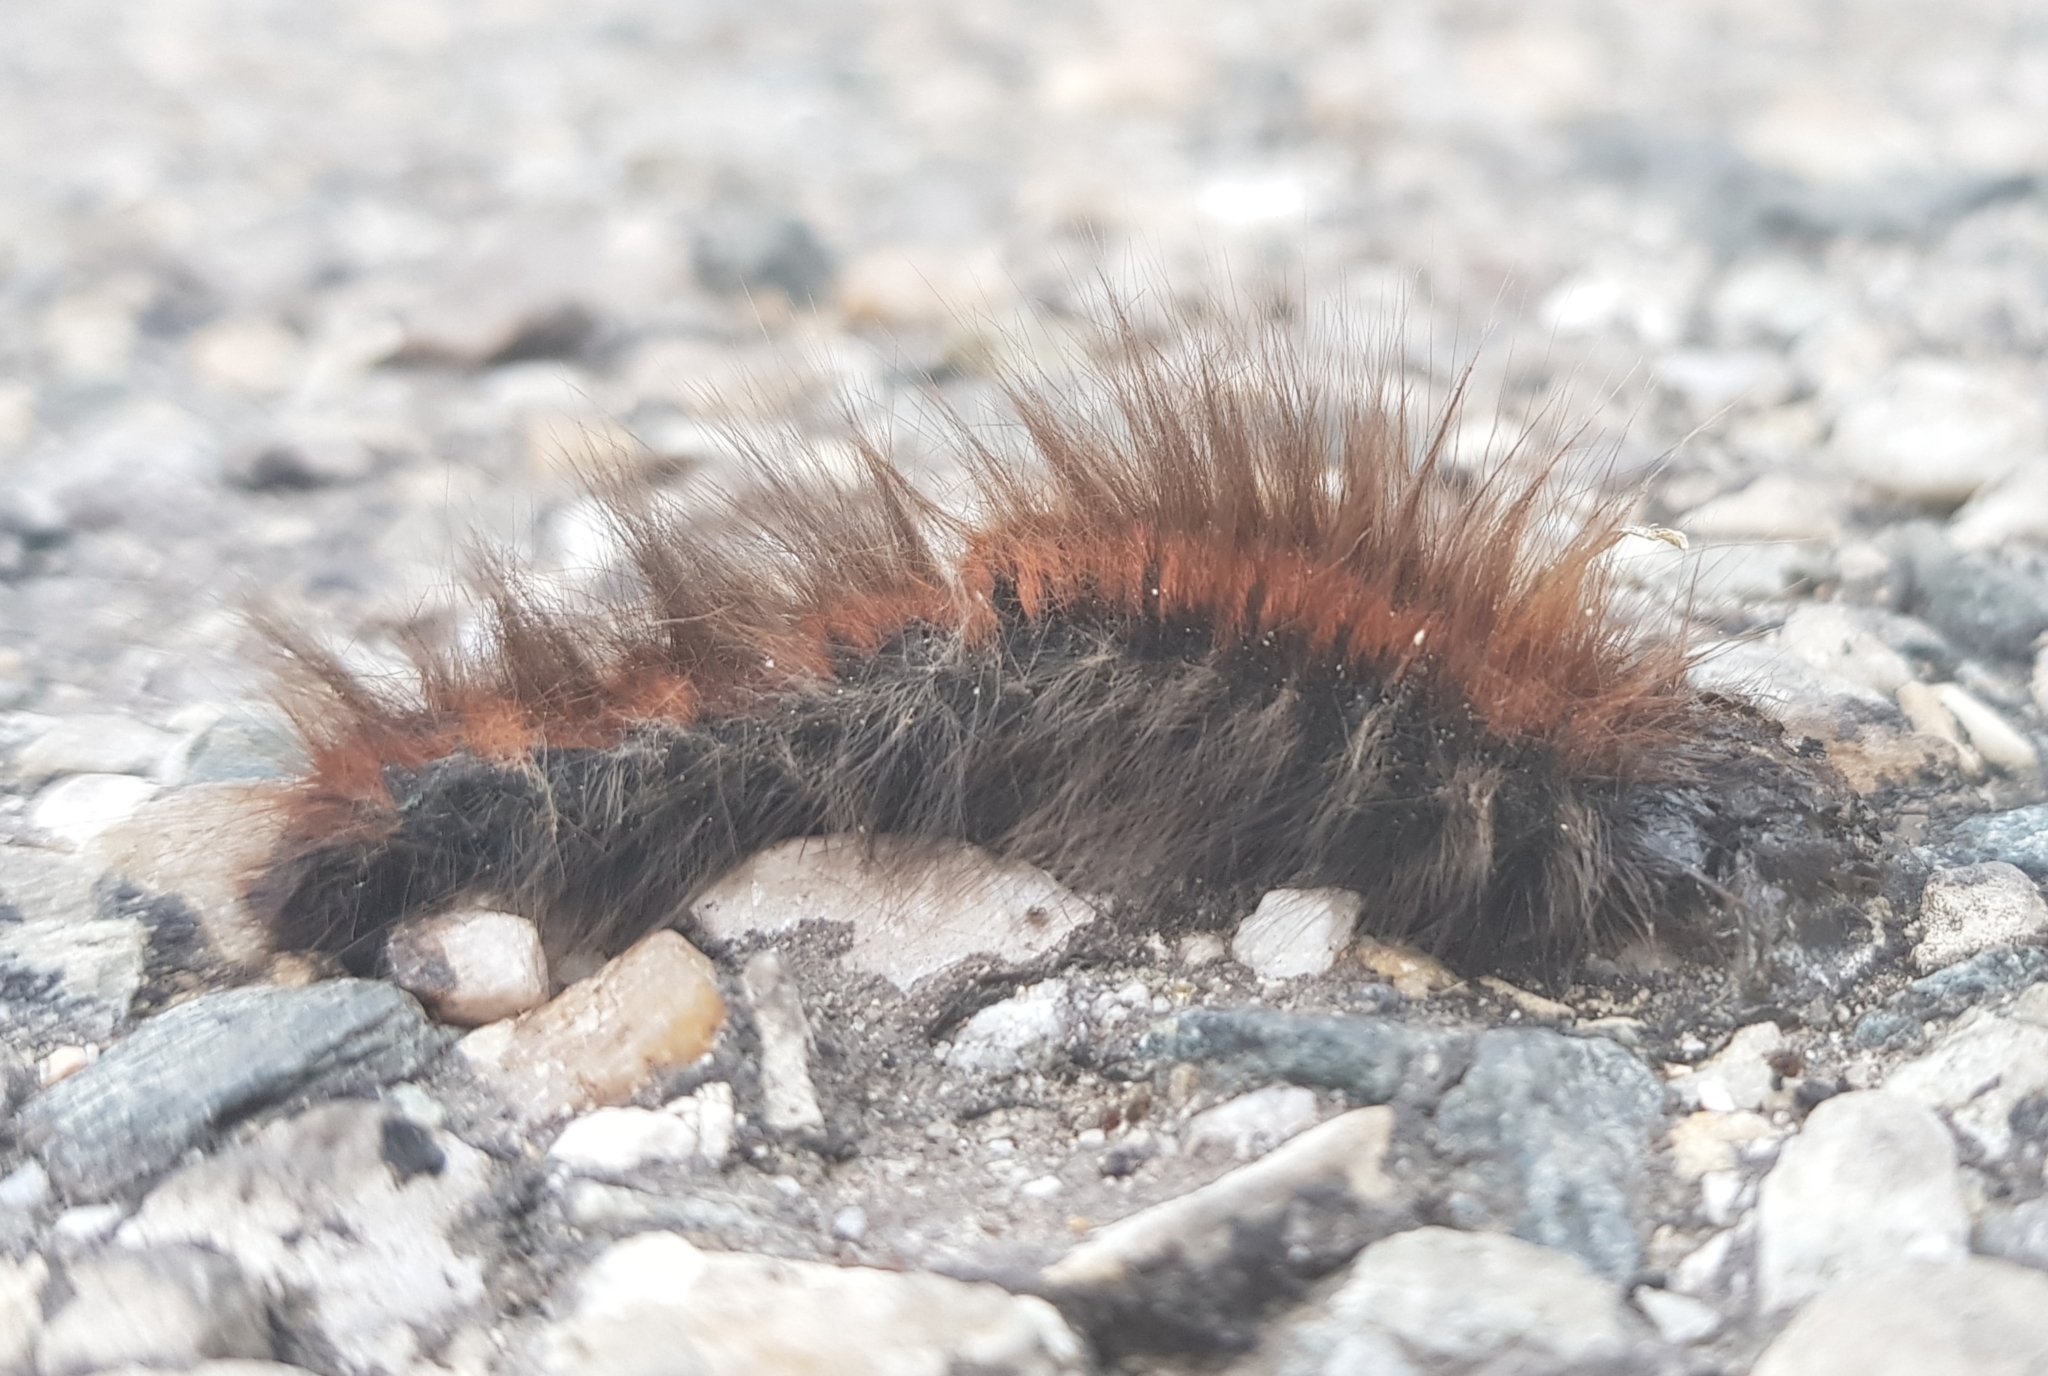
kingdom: Animalia
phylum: Arthropoda
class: Insecta
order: Lepidoptera
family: Lasiocampidae
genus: Macrothylacia
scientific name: Macrothylacia rubi
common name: Fox moth
